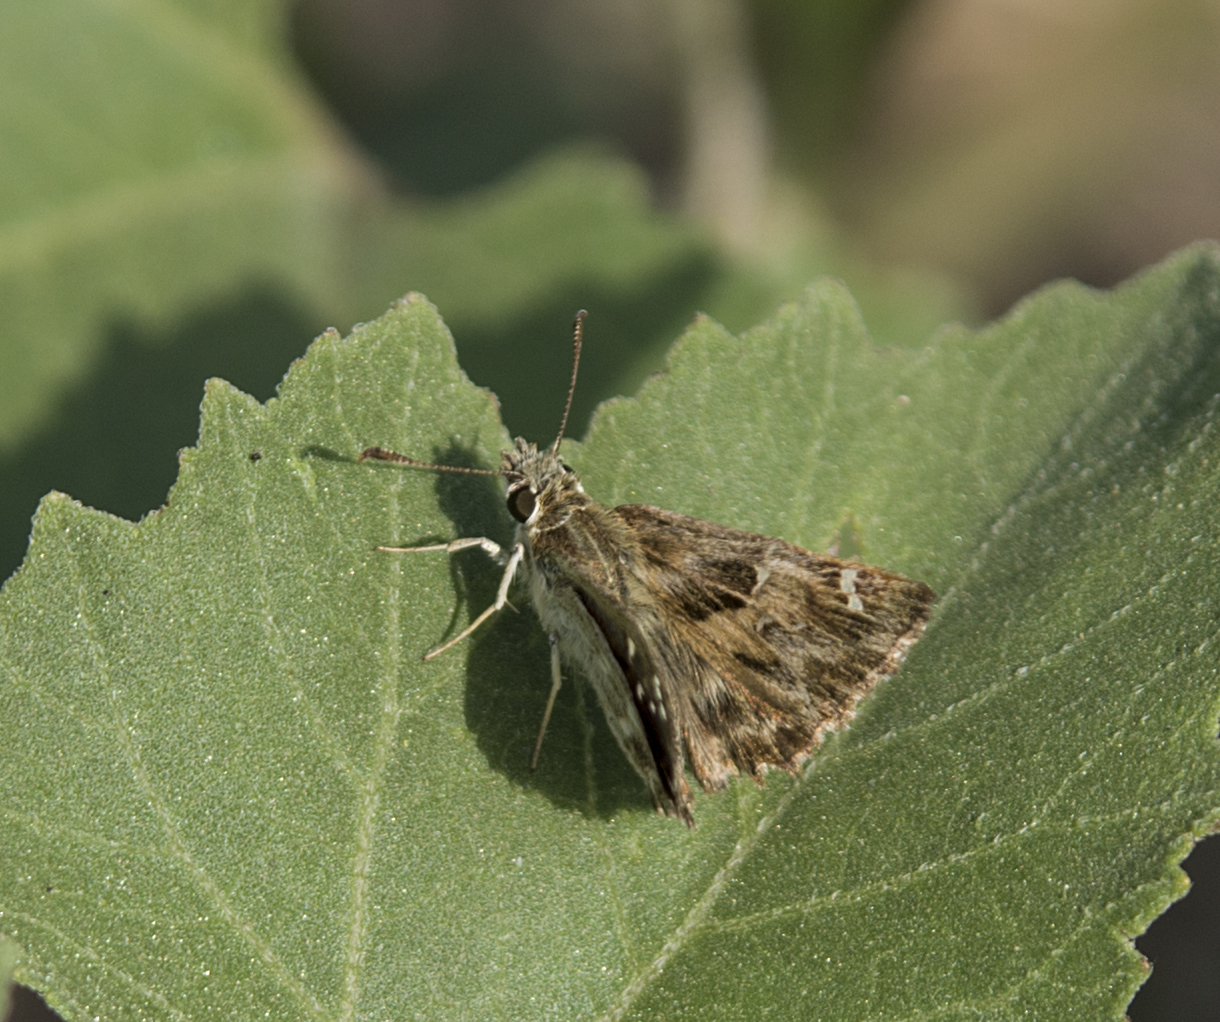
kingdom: Animalia
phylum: Arthropoda
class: Insecta
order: Lepidoptera
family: Hesperiidae
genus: Carcharodus
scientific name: Carcharodus alceae
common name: Mallow skipper
